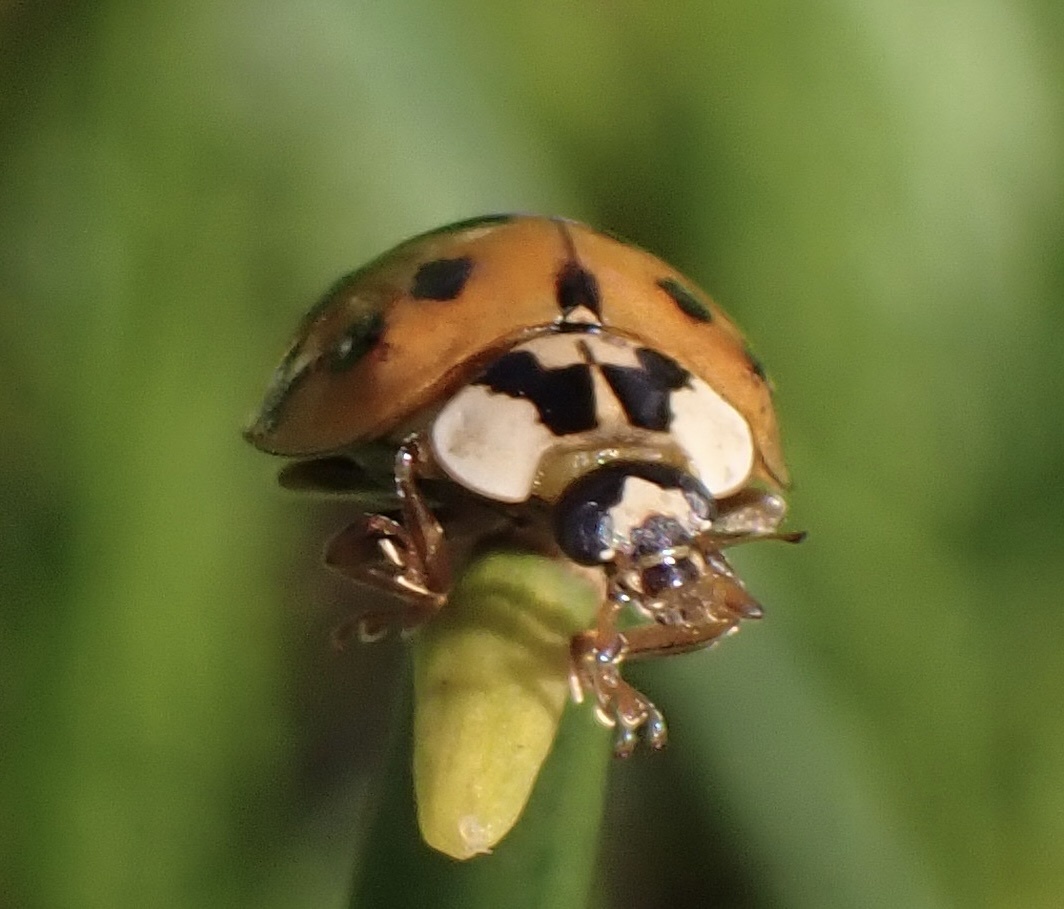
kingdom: Animalia
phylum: Arthropoda
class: Insecta
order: Coleoptera
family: Coccinellidae
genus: Harmonia
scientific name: Harmonia axyridis
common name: Harlequin ladybird
